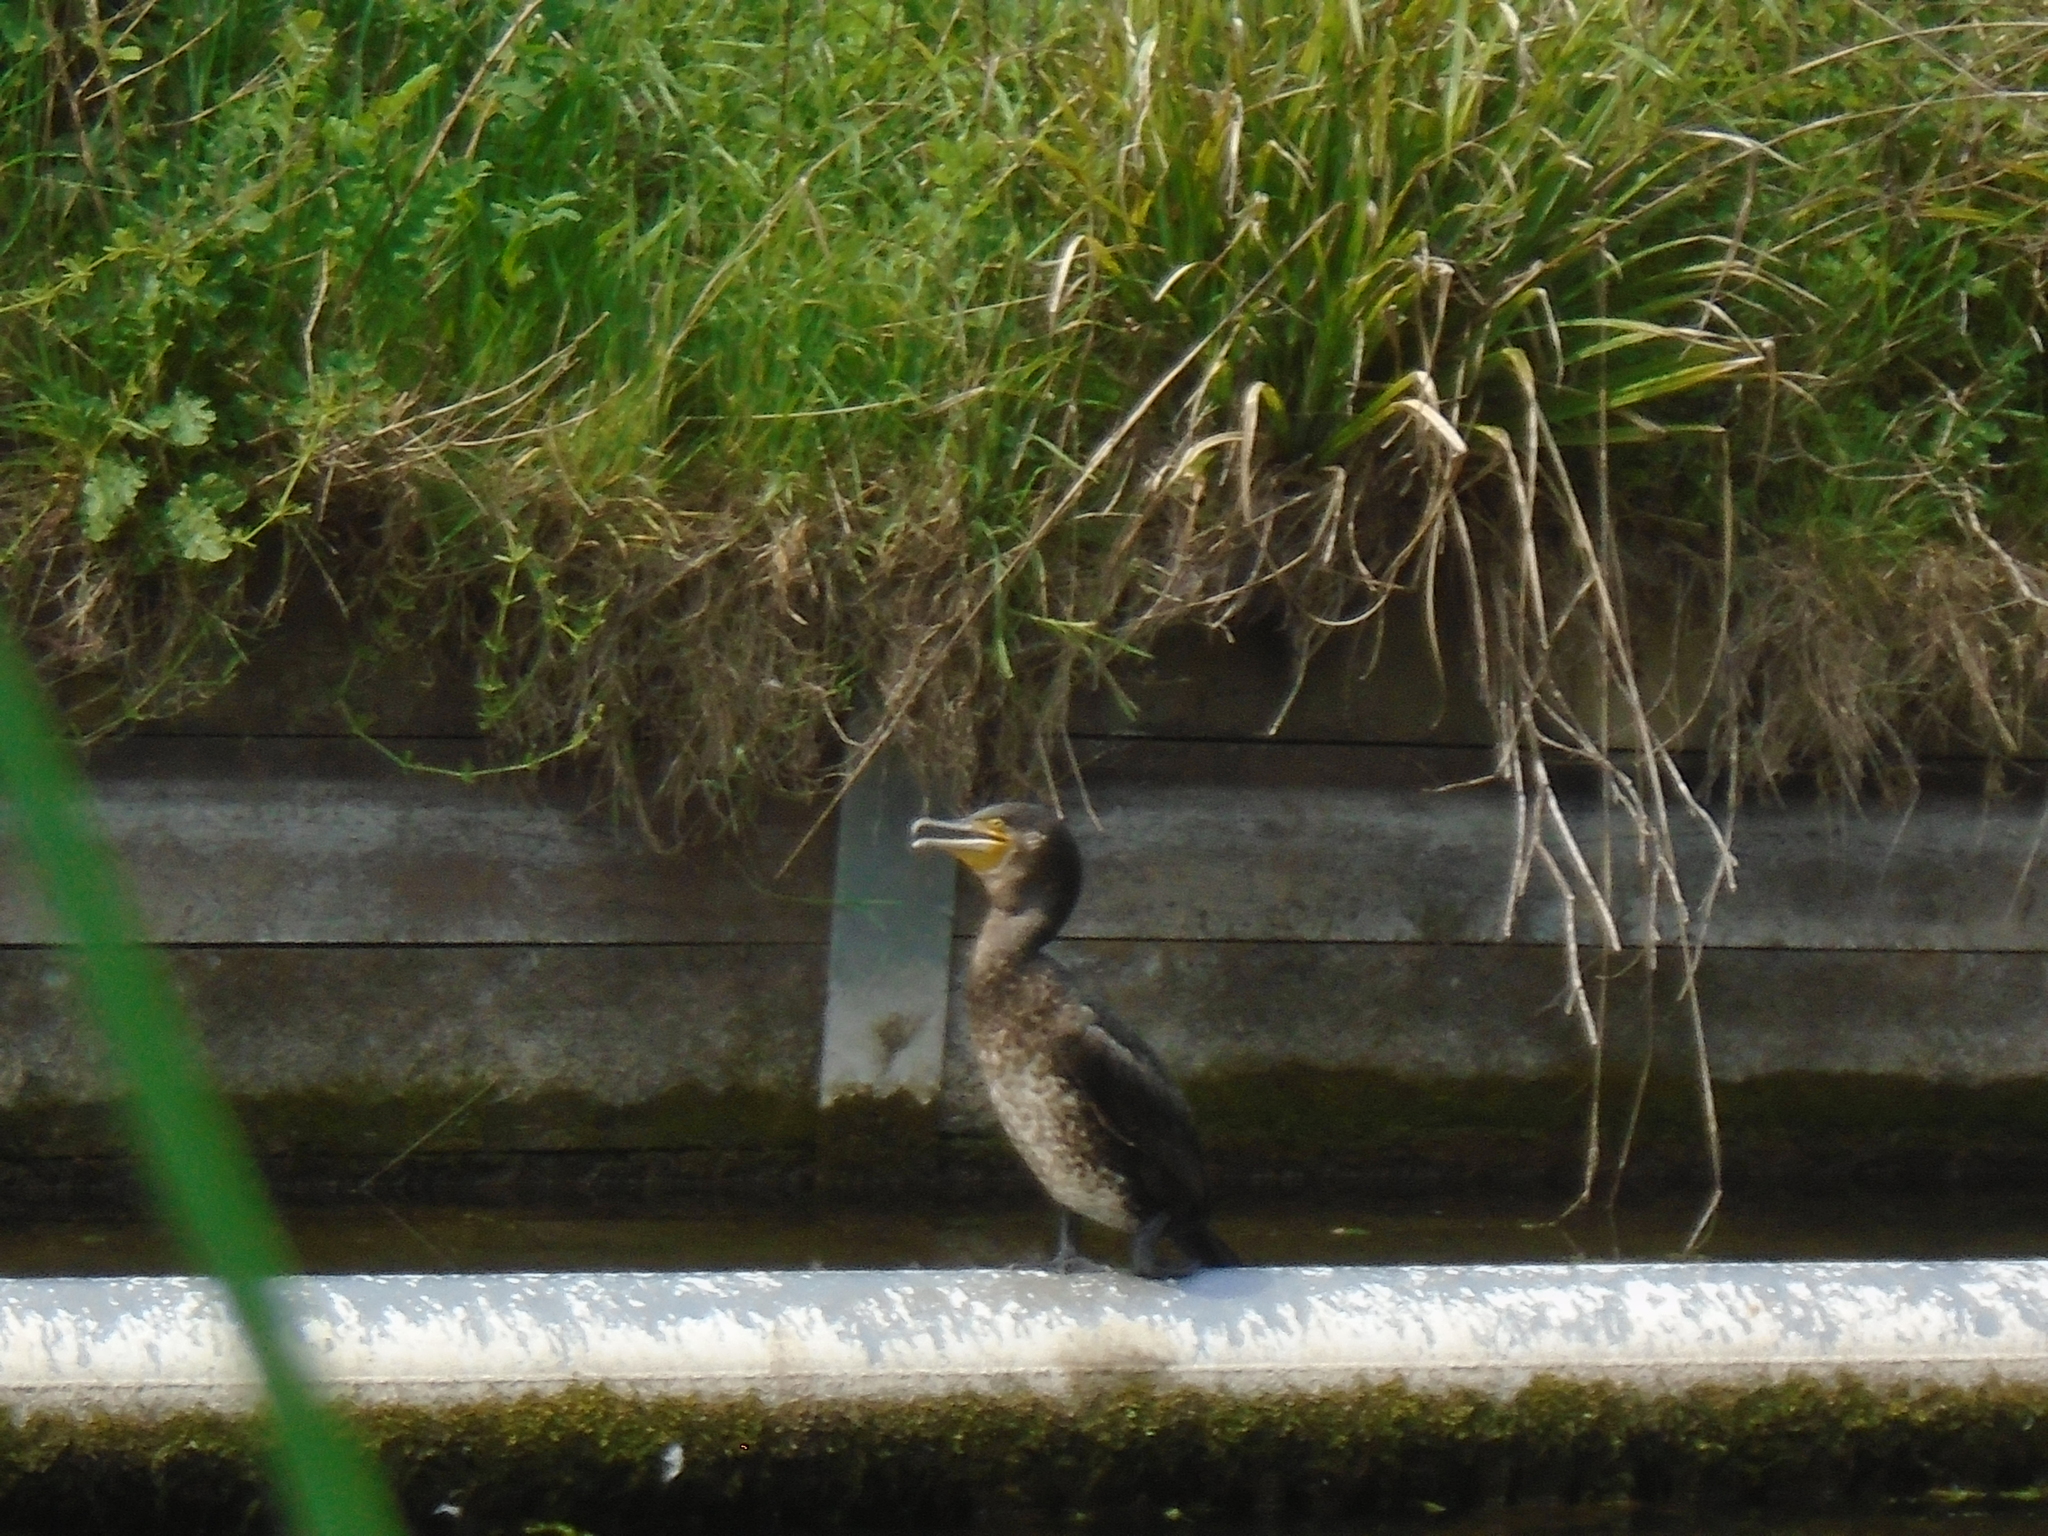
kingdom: Animalia
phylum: Chordata
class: Aves
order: Suliformes
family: Phalacrocoracidae
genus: Phalacrocorax
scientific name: Phalacrocorax carbo
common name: Great cormorant
